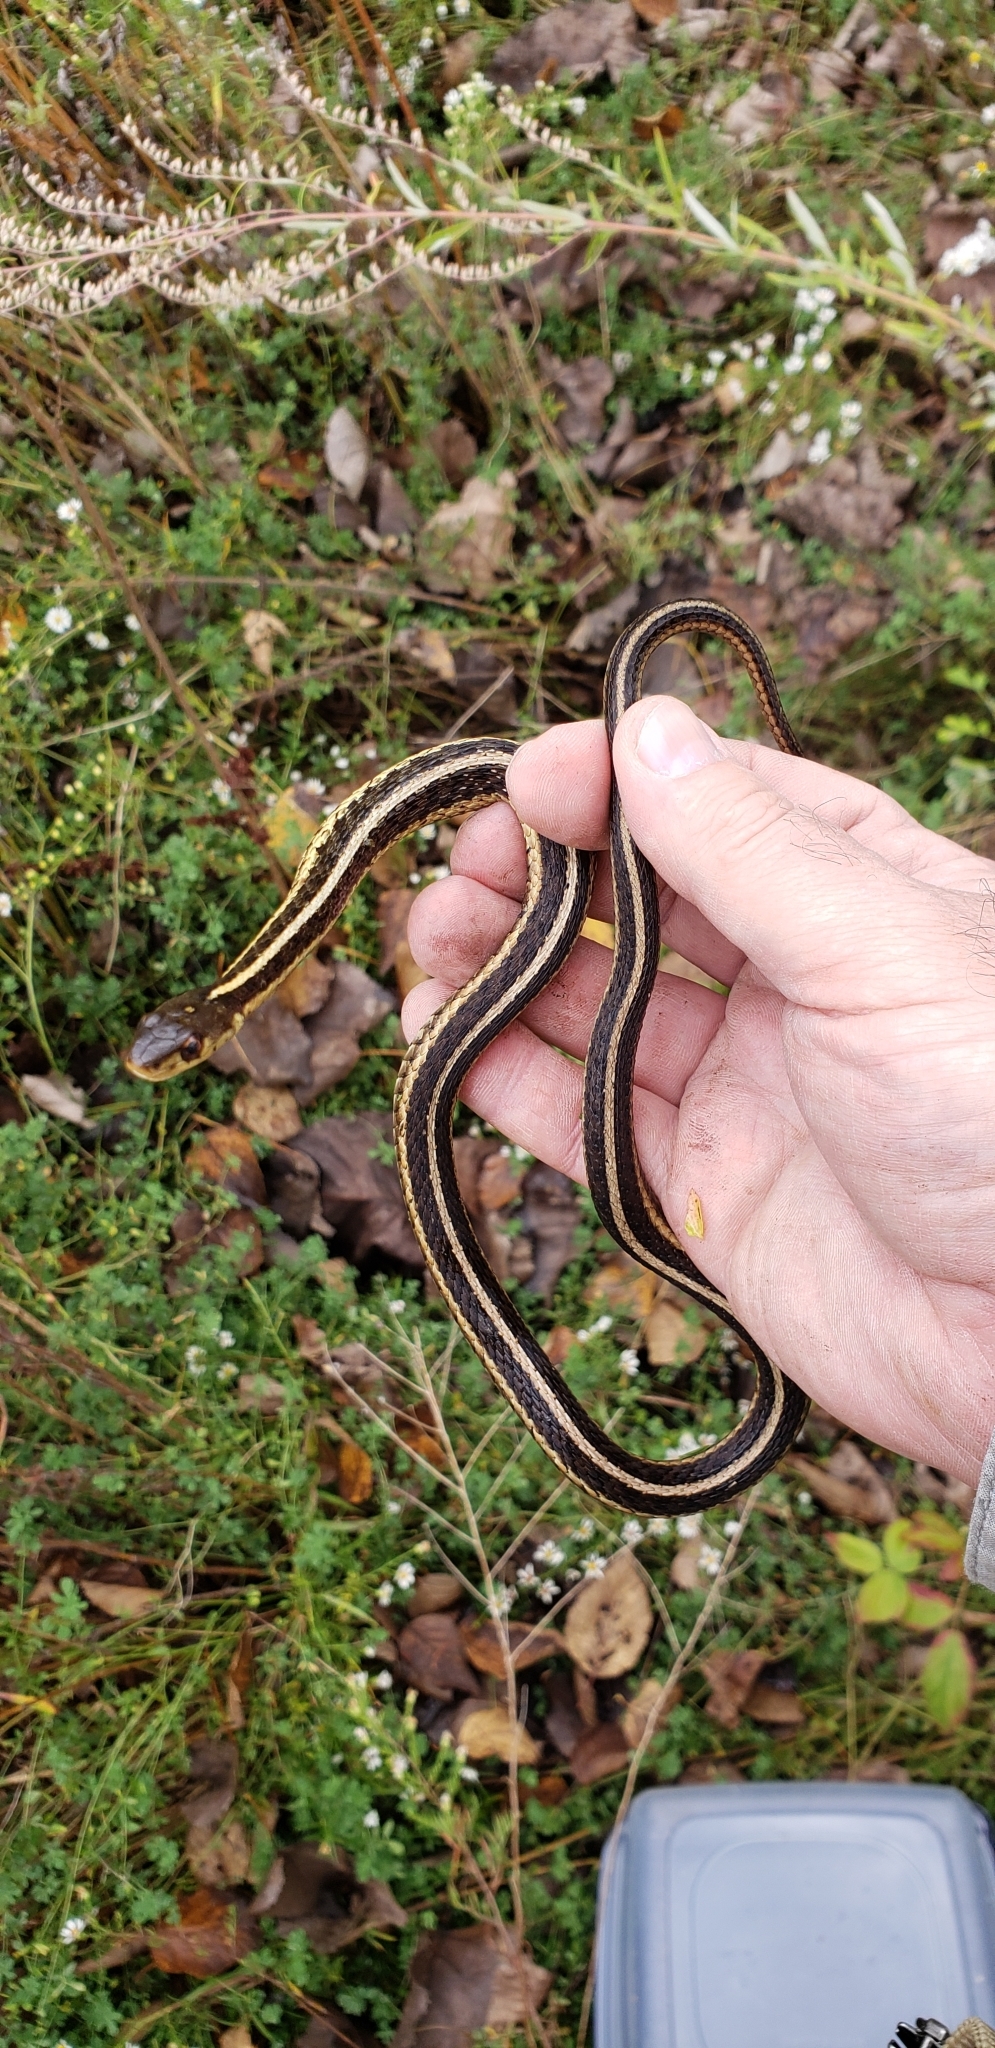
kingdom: Animalia
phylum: Chordata
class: Squamata
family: Colubridae
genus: Thamnophis
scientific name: Thamnophis sirtalis
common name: Common garter snake
